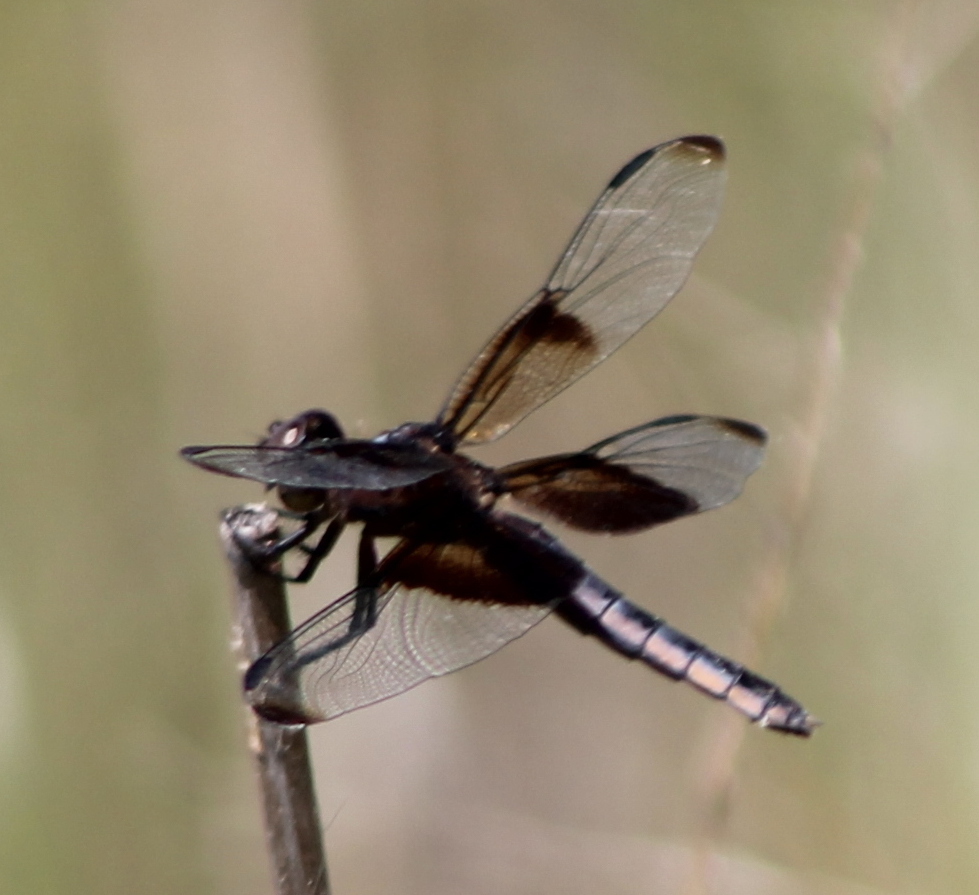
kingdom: Animalia
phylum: Arthropoda
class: Insecta
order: Odonata
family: Libellulidae
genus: Libellula
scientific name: Libellula luctuosa
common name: Widow skimmer
